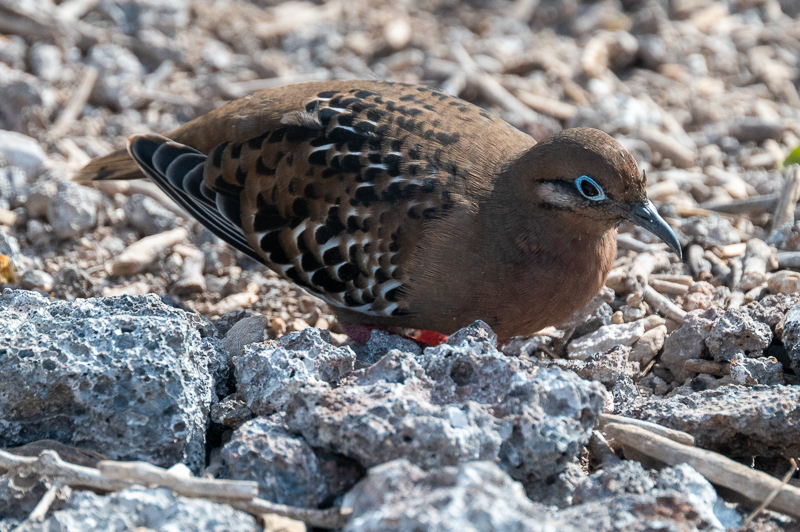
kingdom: Animalia
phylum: Chordata
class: Aves
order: Columbiformes
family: Columbidae
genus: Zenaida
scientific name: Zenaida galapagoensis
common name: Galapagos dove
